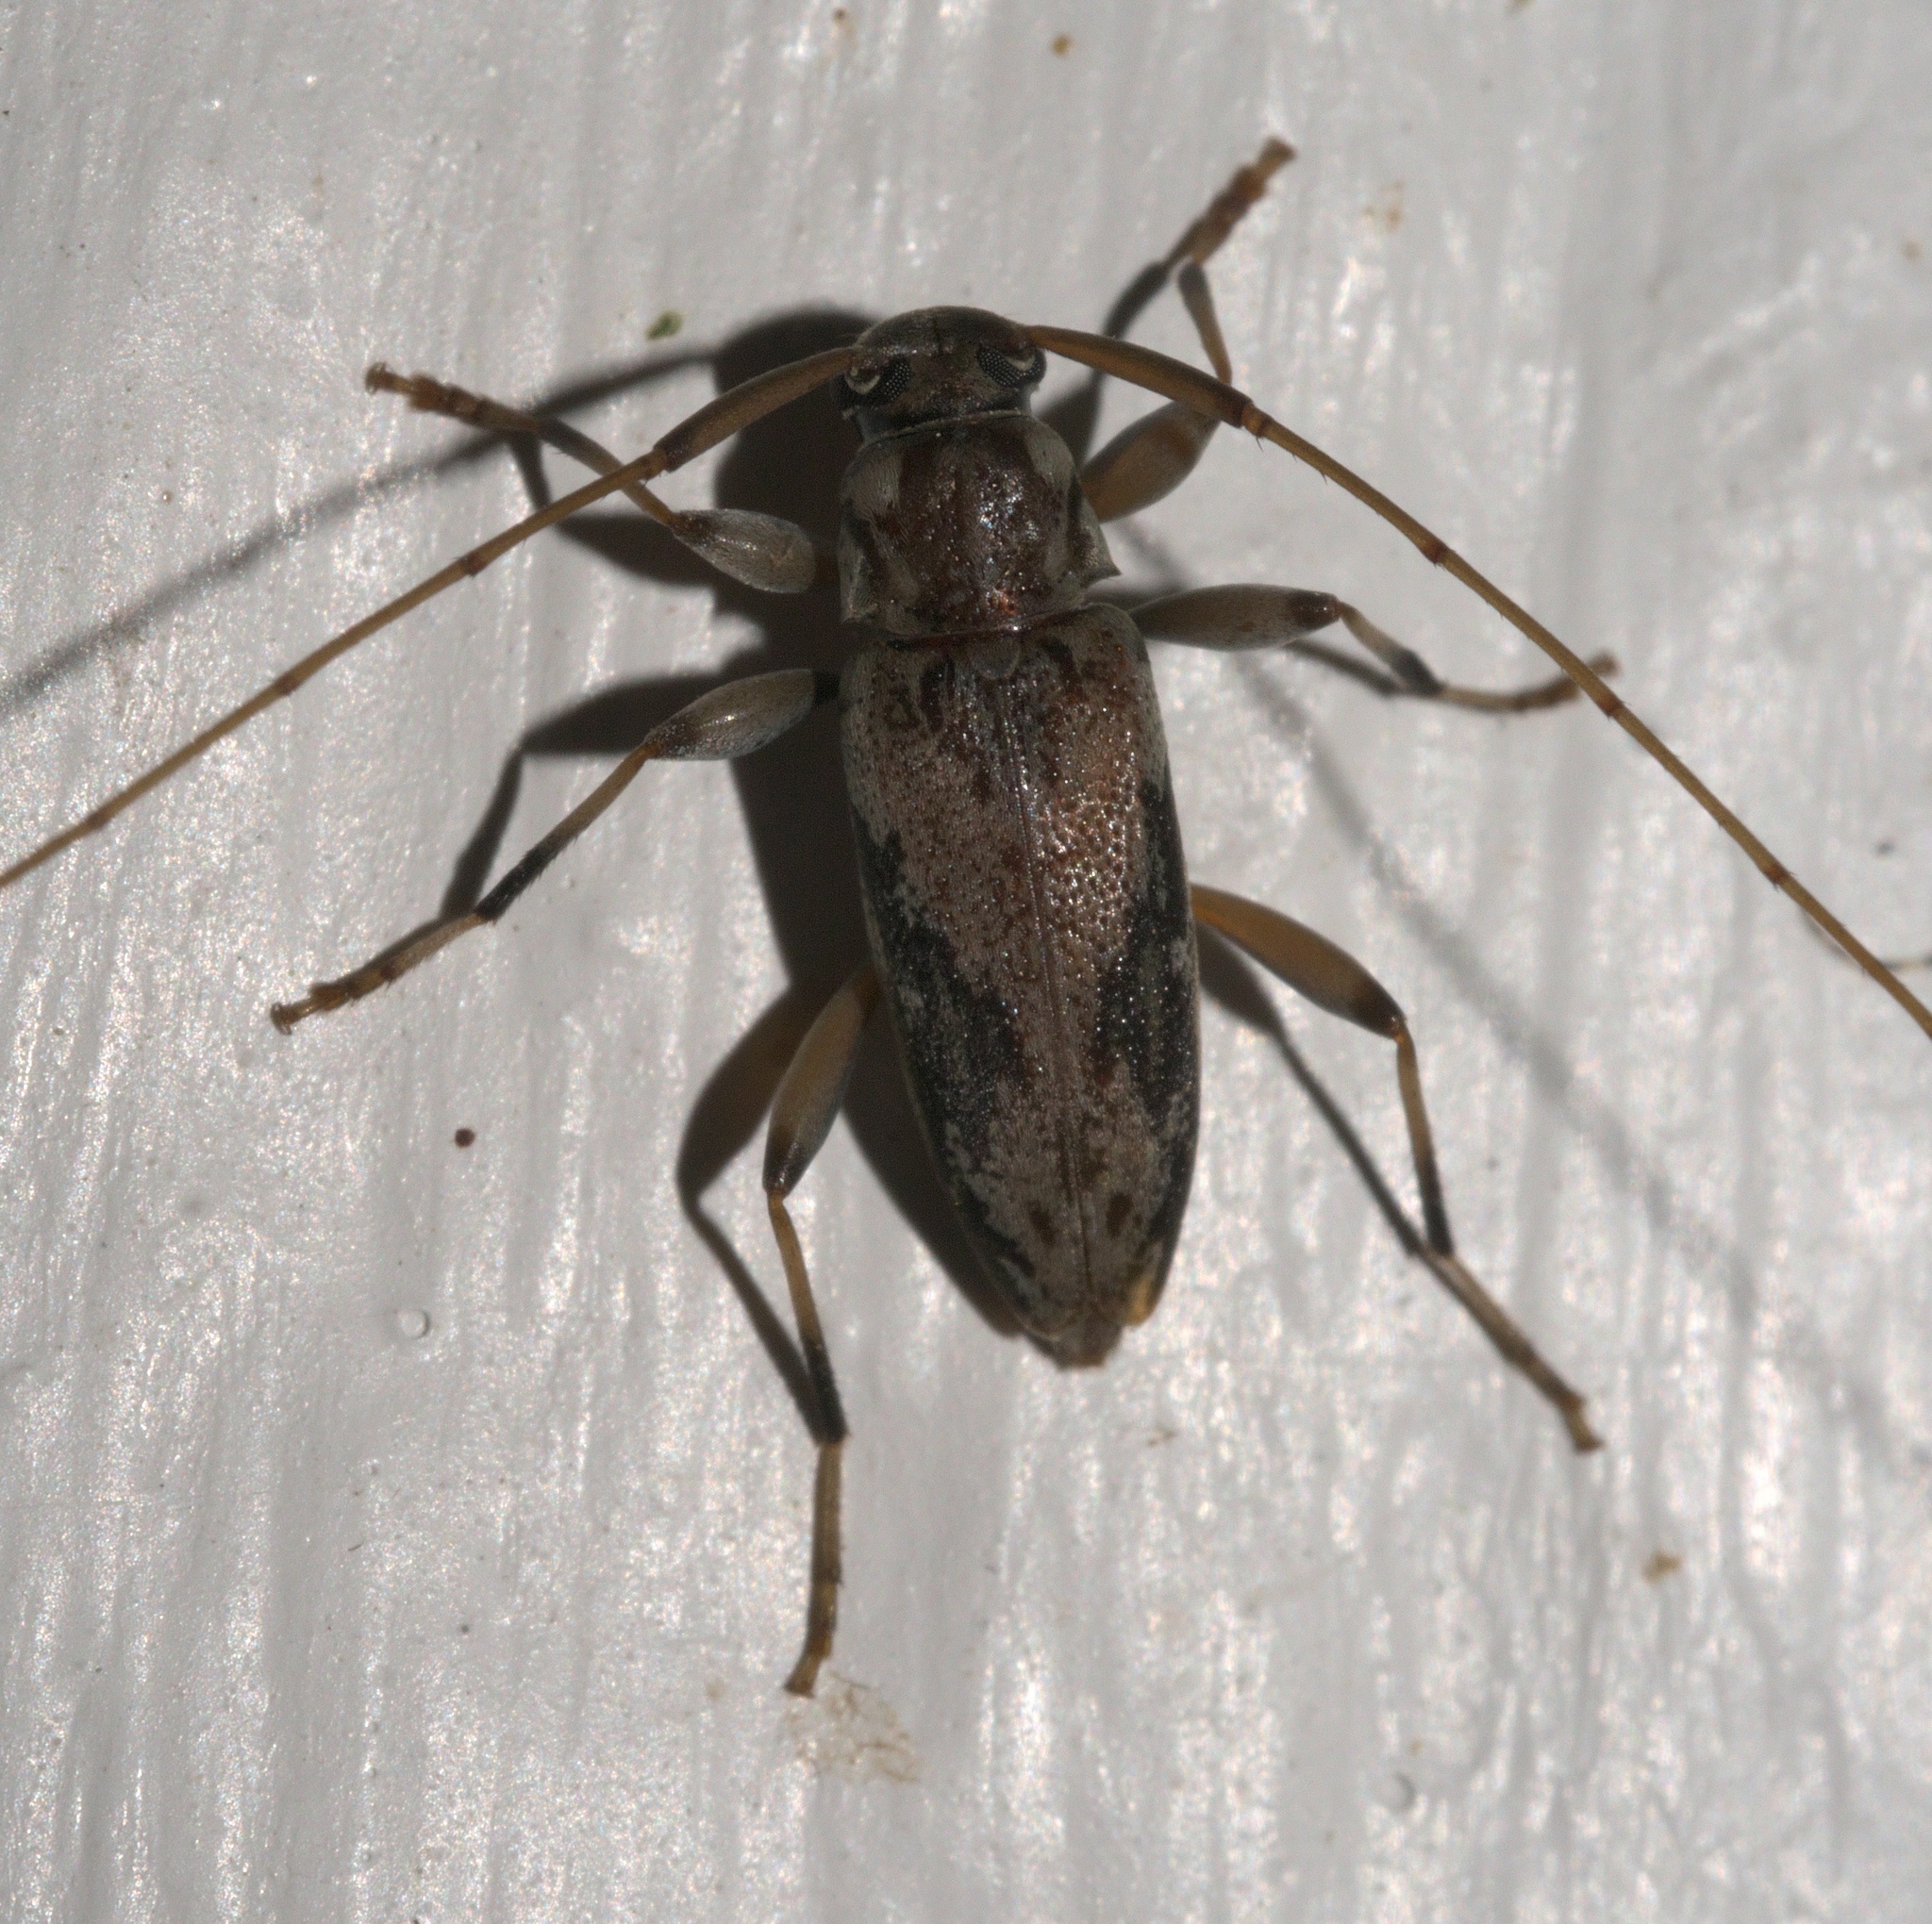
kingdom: Animalia
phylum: Arthropoda
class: Insecta
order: Coleoptera
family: Cerambycidae
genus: Lepturges
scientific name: Lepturges confluens
